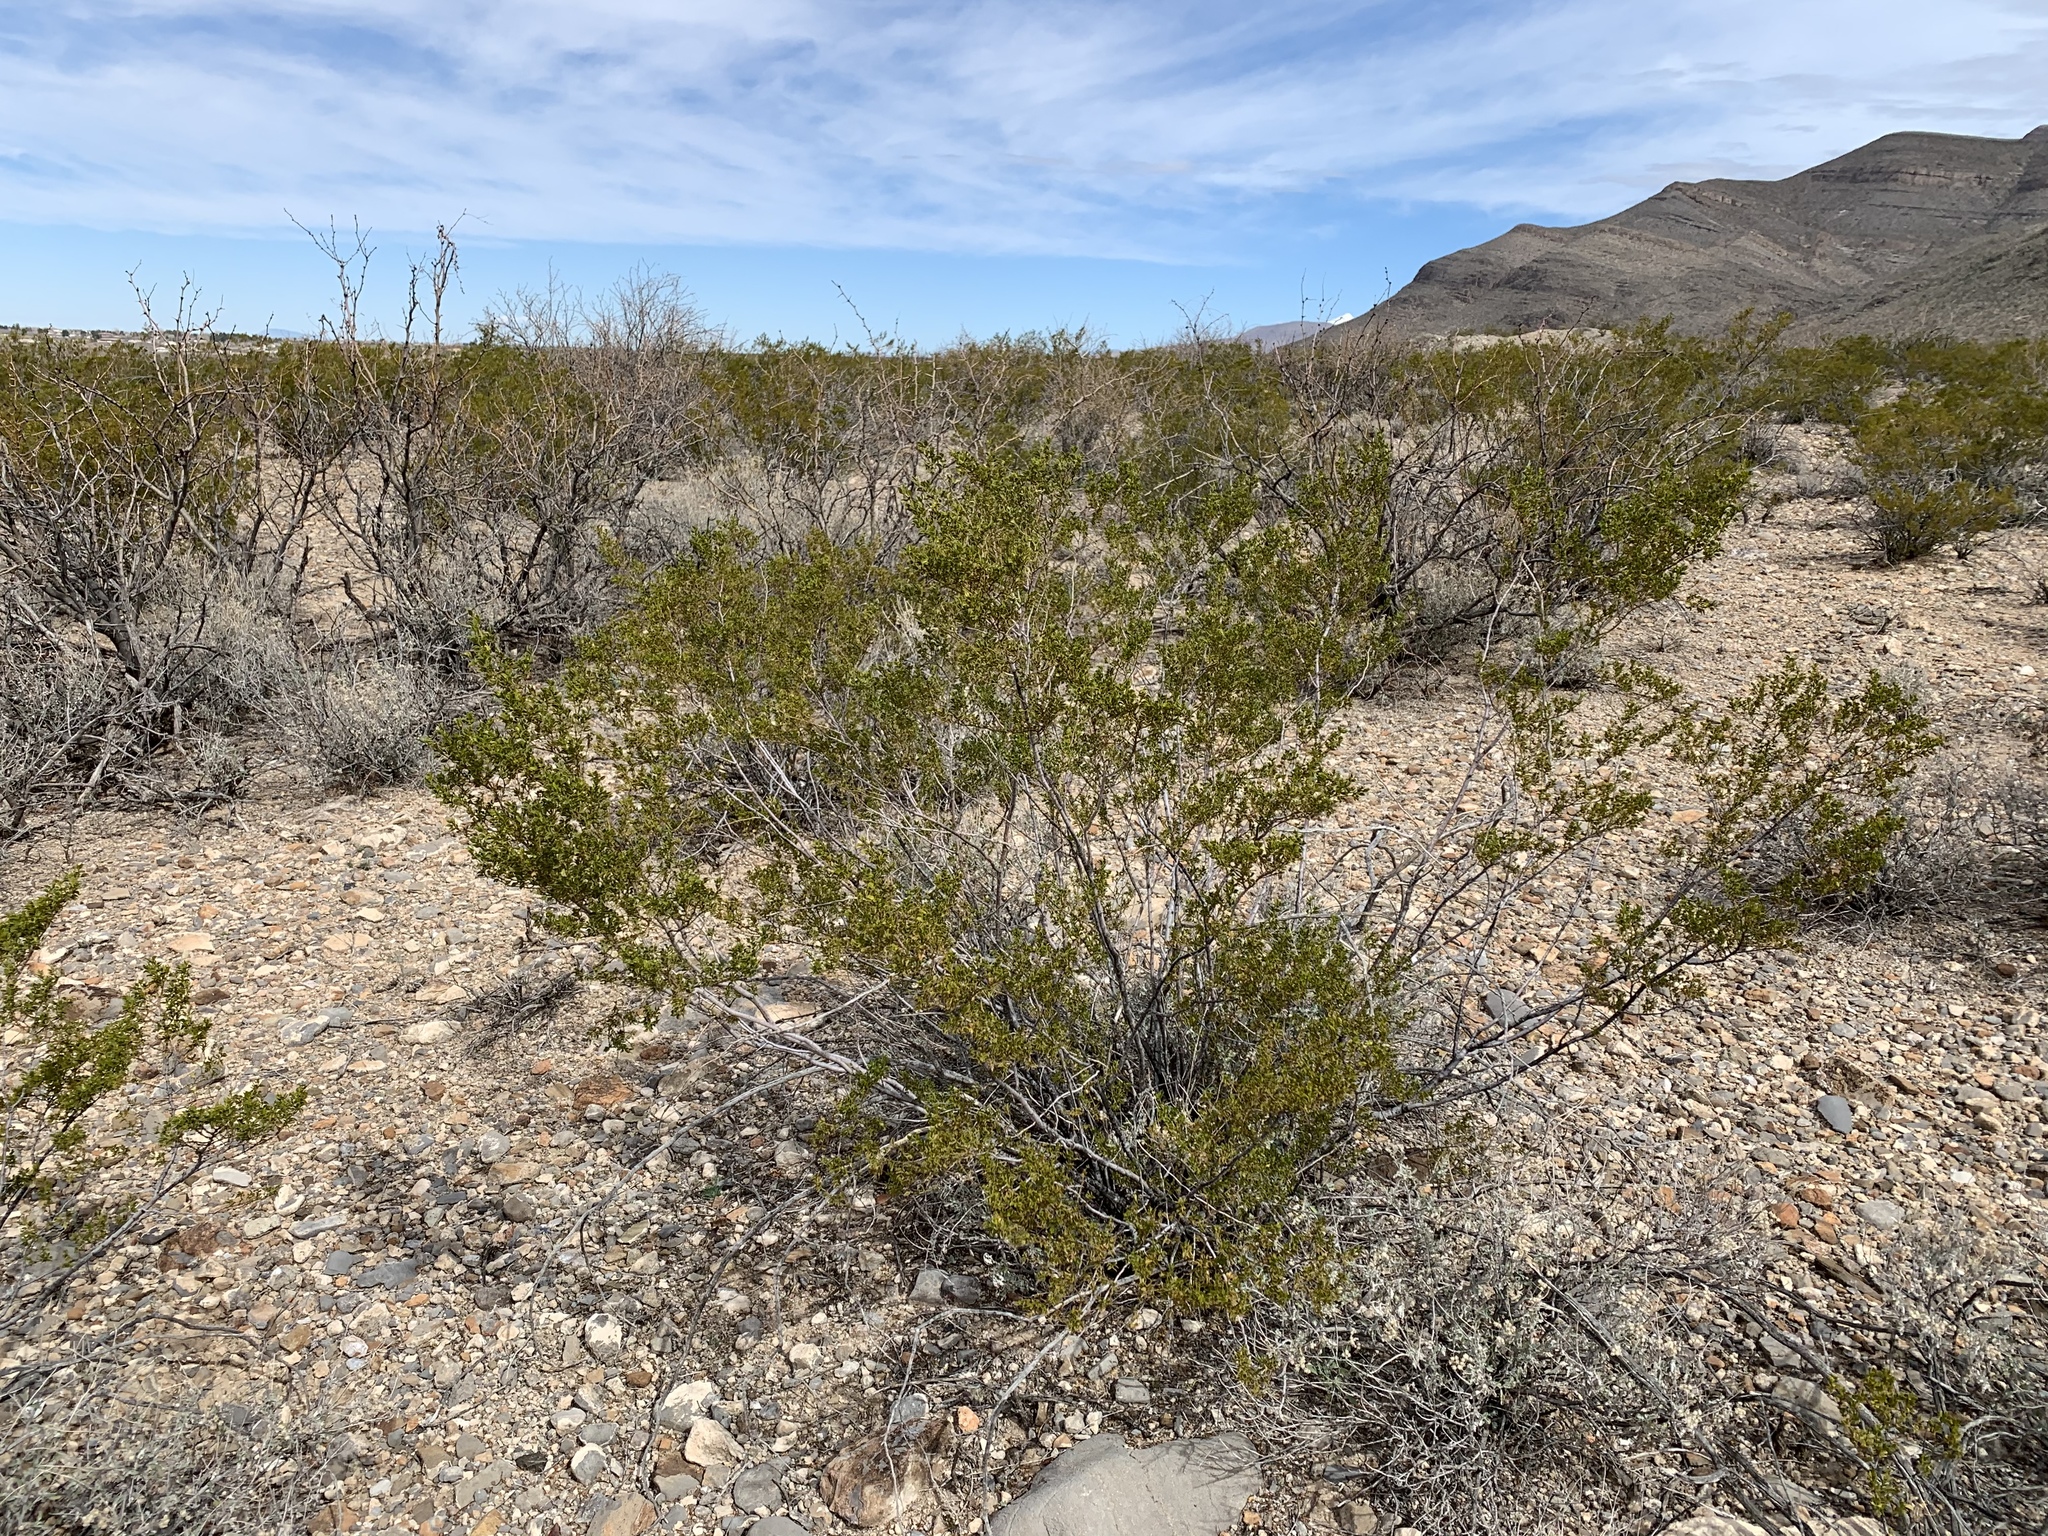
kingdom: Plantae
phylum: Tracheophyta
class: Magnoliopsida
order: Zygophyllales
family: Zygophyllaceae
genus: Larrea
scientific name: Larrea tridentata
